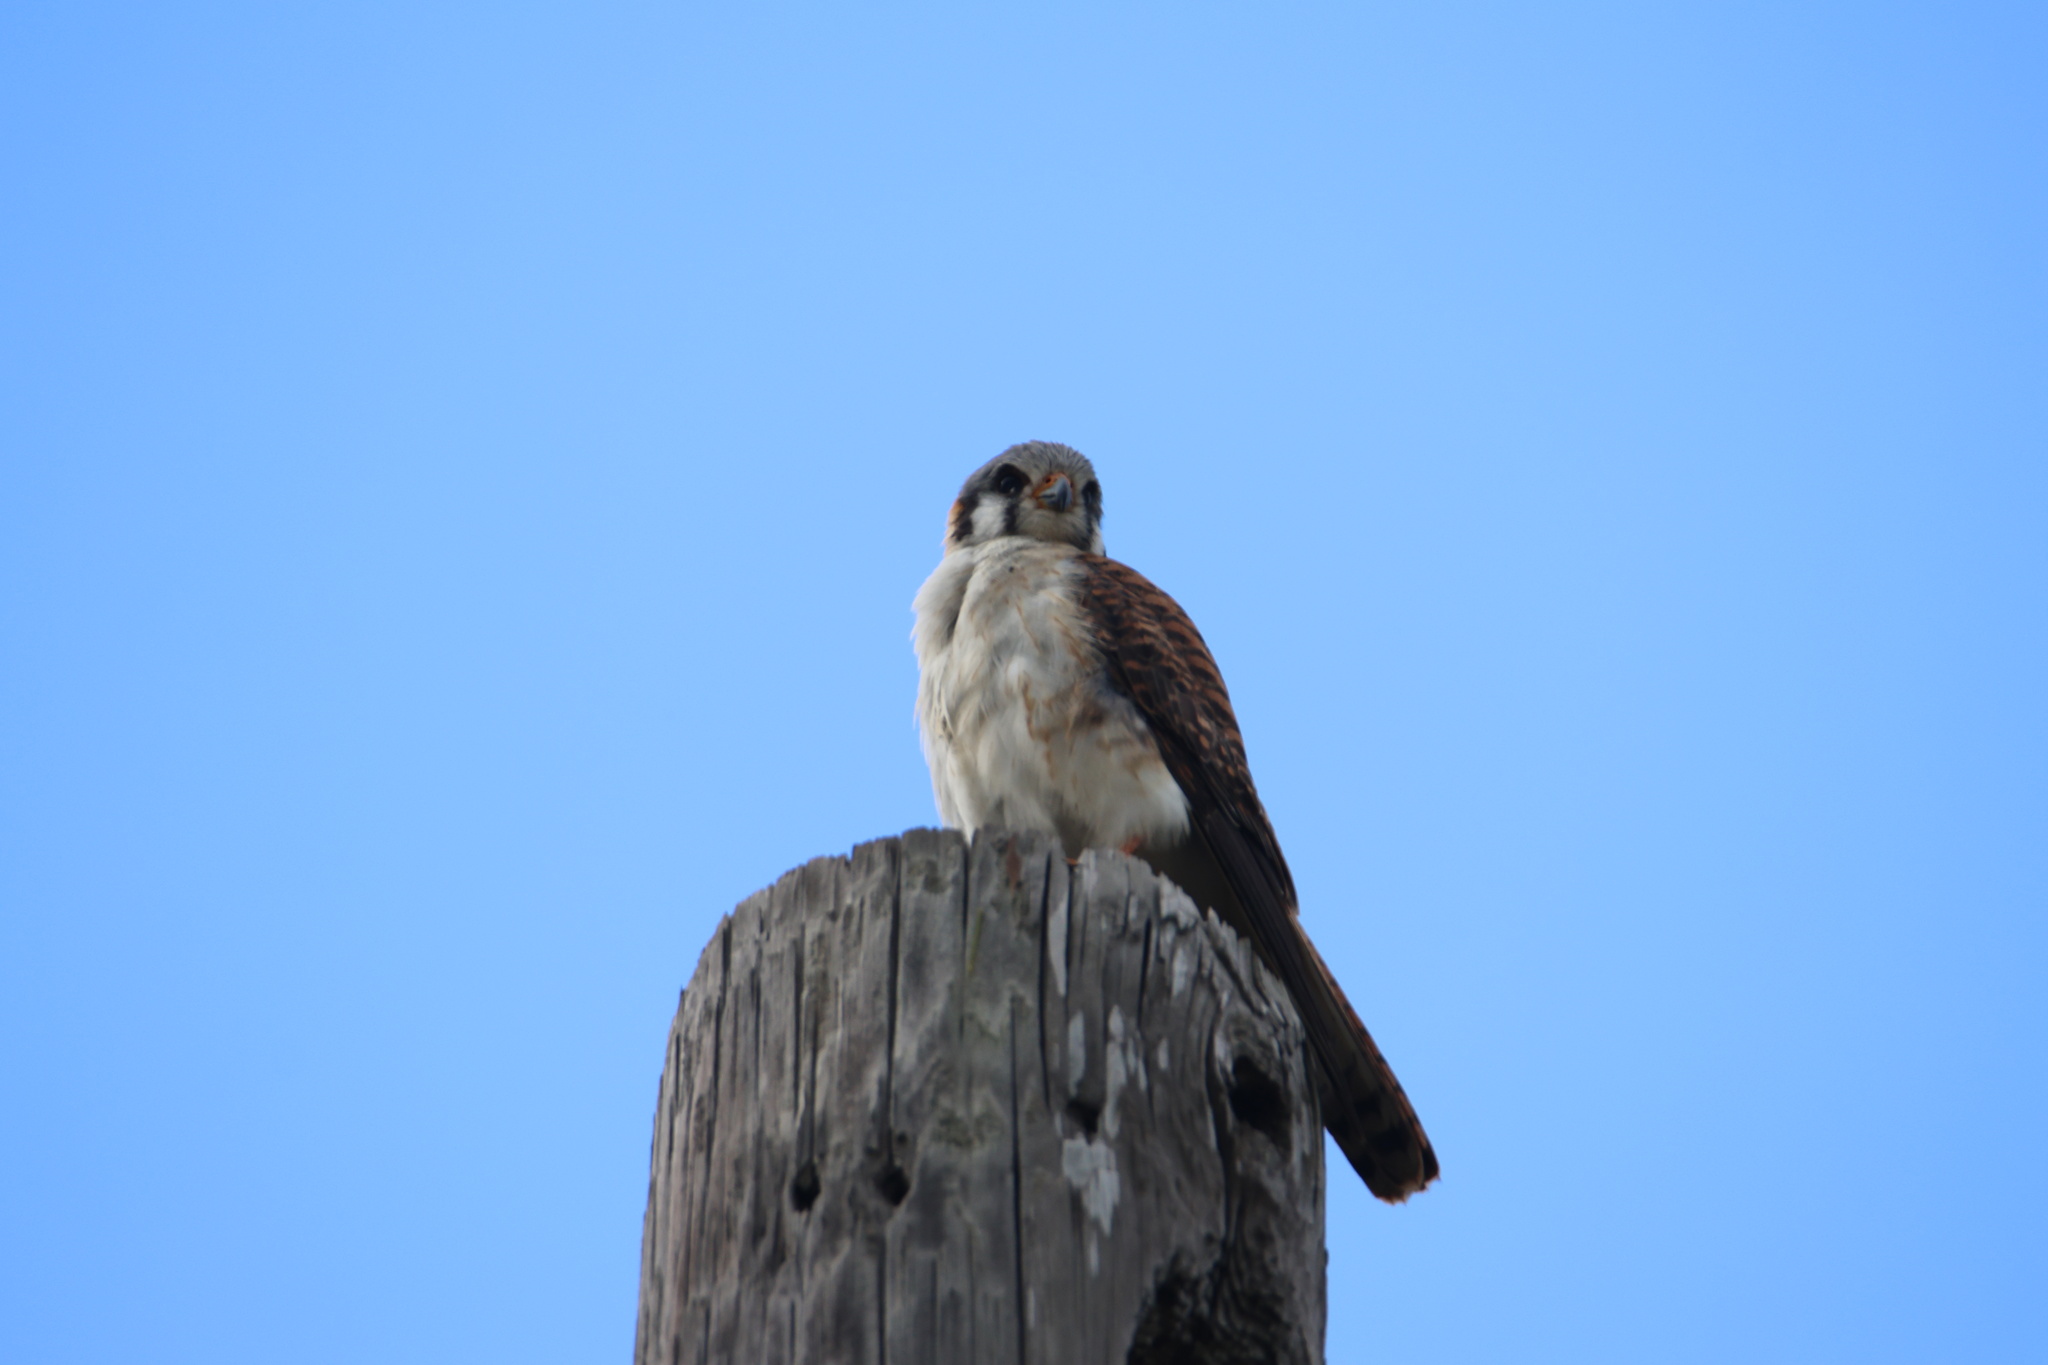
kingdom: Animalia
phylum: Chordata
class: Aves
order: Falconiformes
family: Falconidae
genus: Falco
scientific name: Falco sparverius
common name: American kestrel
